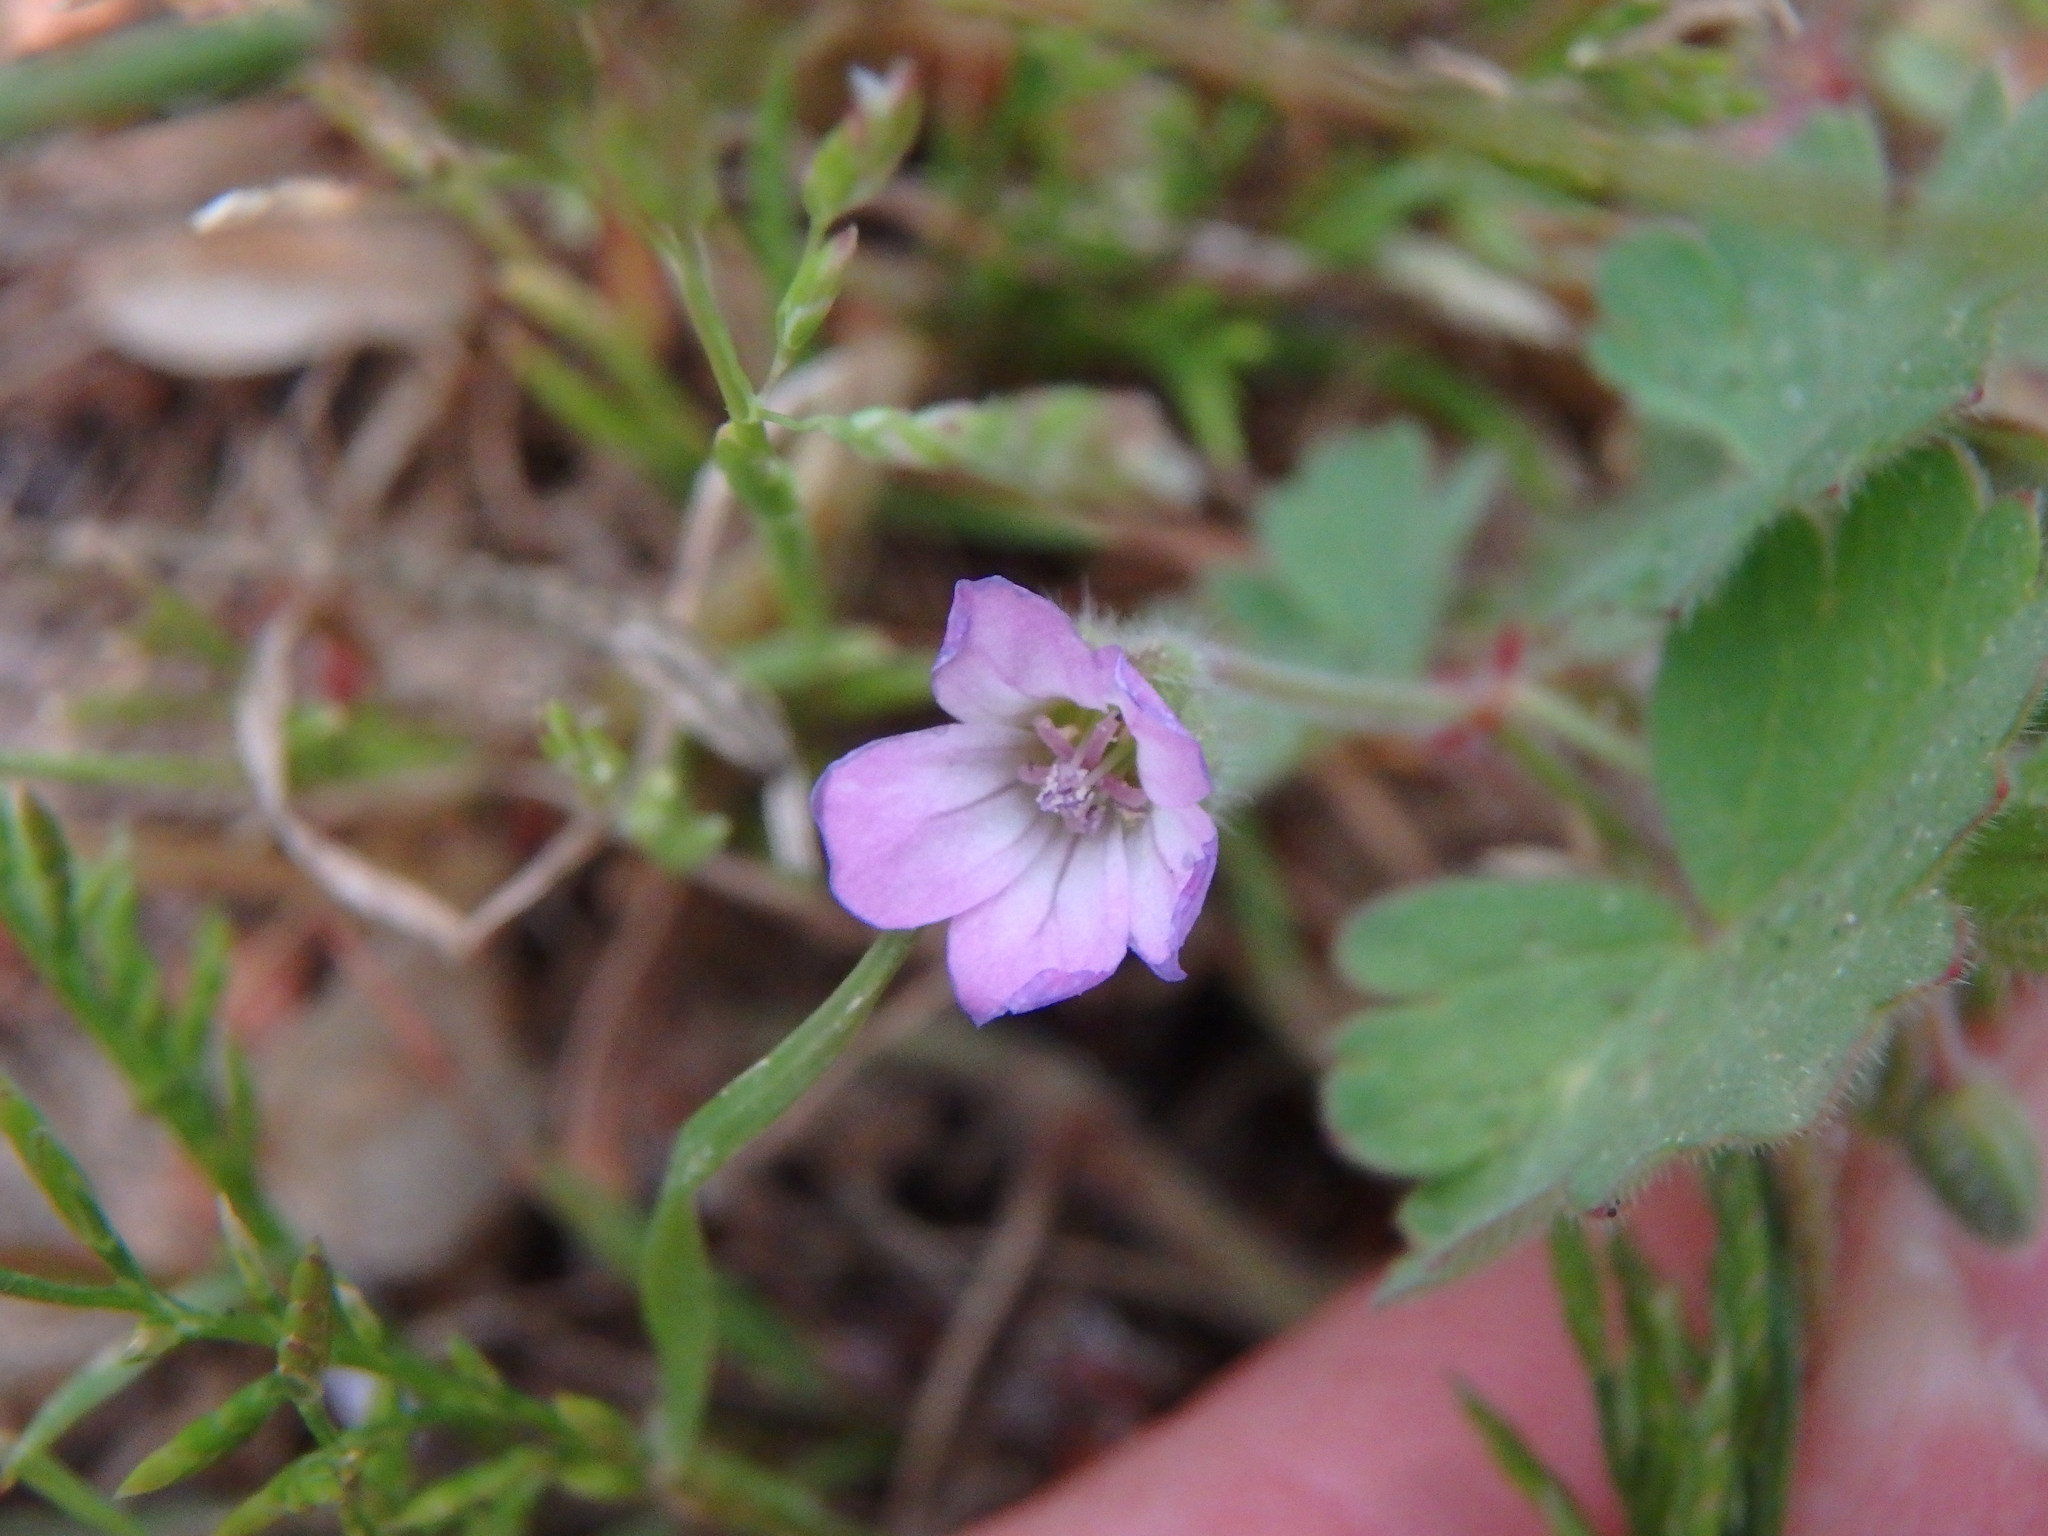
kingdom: Plantae
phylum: Tracheophyta
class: Magnoliopsida
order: Geraniales
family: Geraniaceae
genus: Geranium
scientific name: Geranium rotundifolium
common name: Round-leaved crane's-bill
